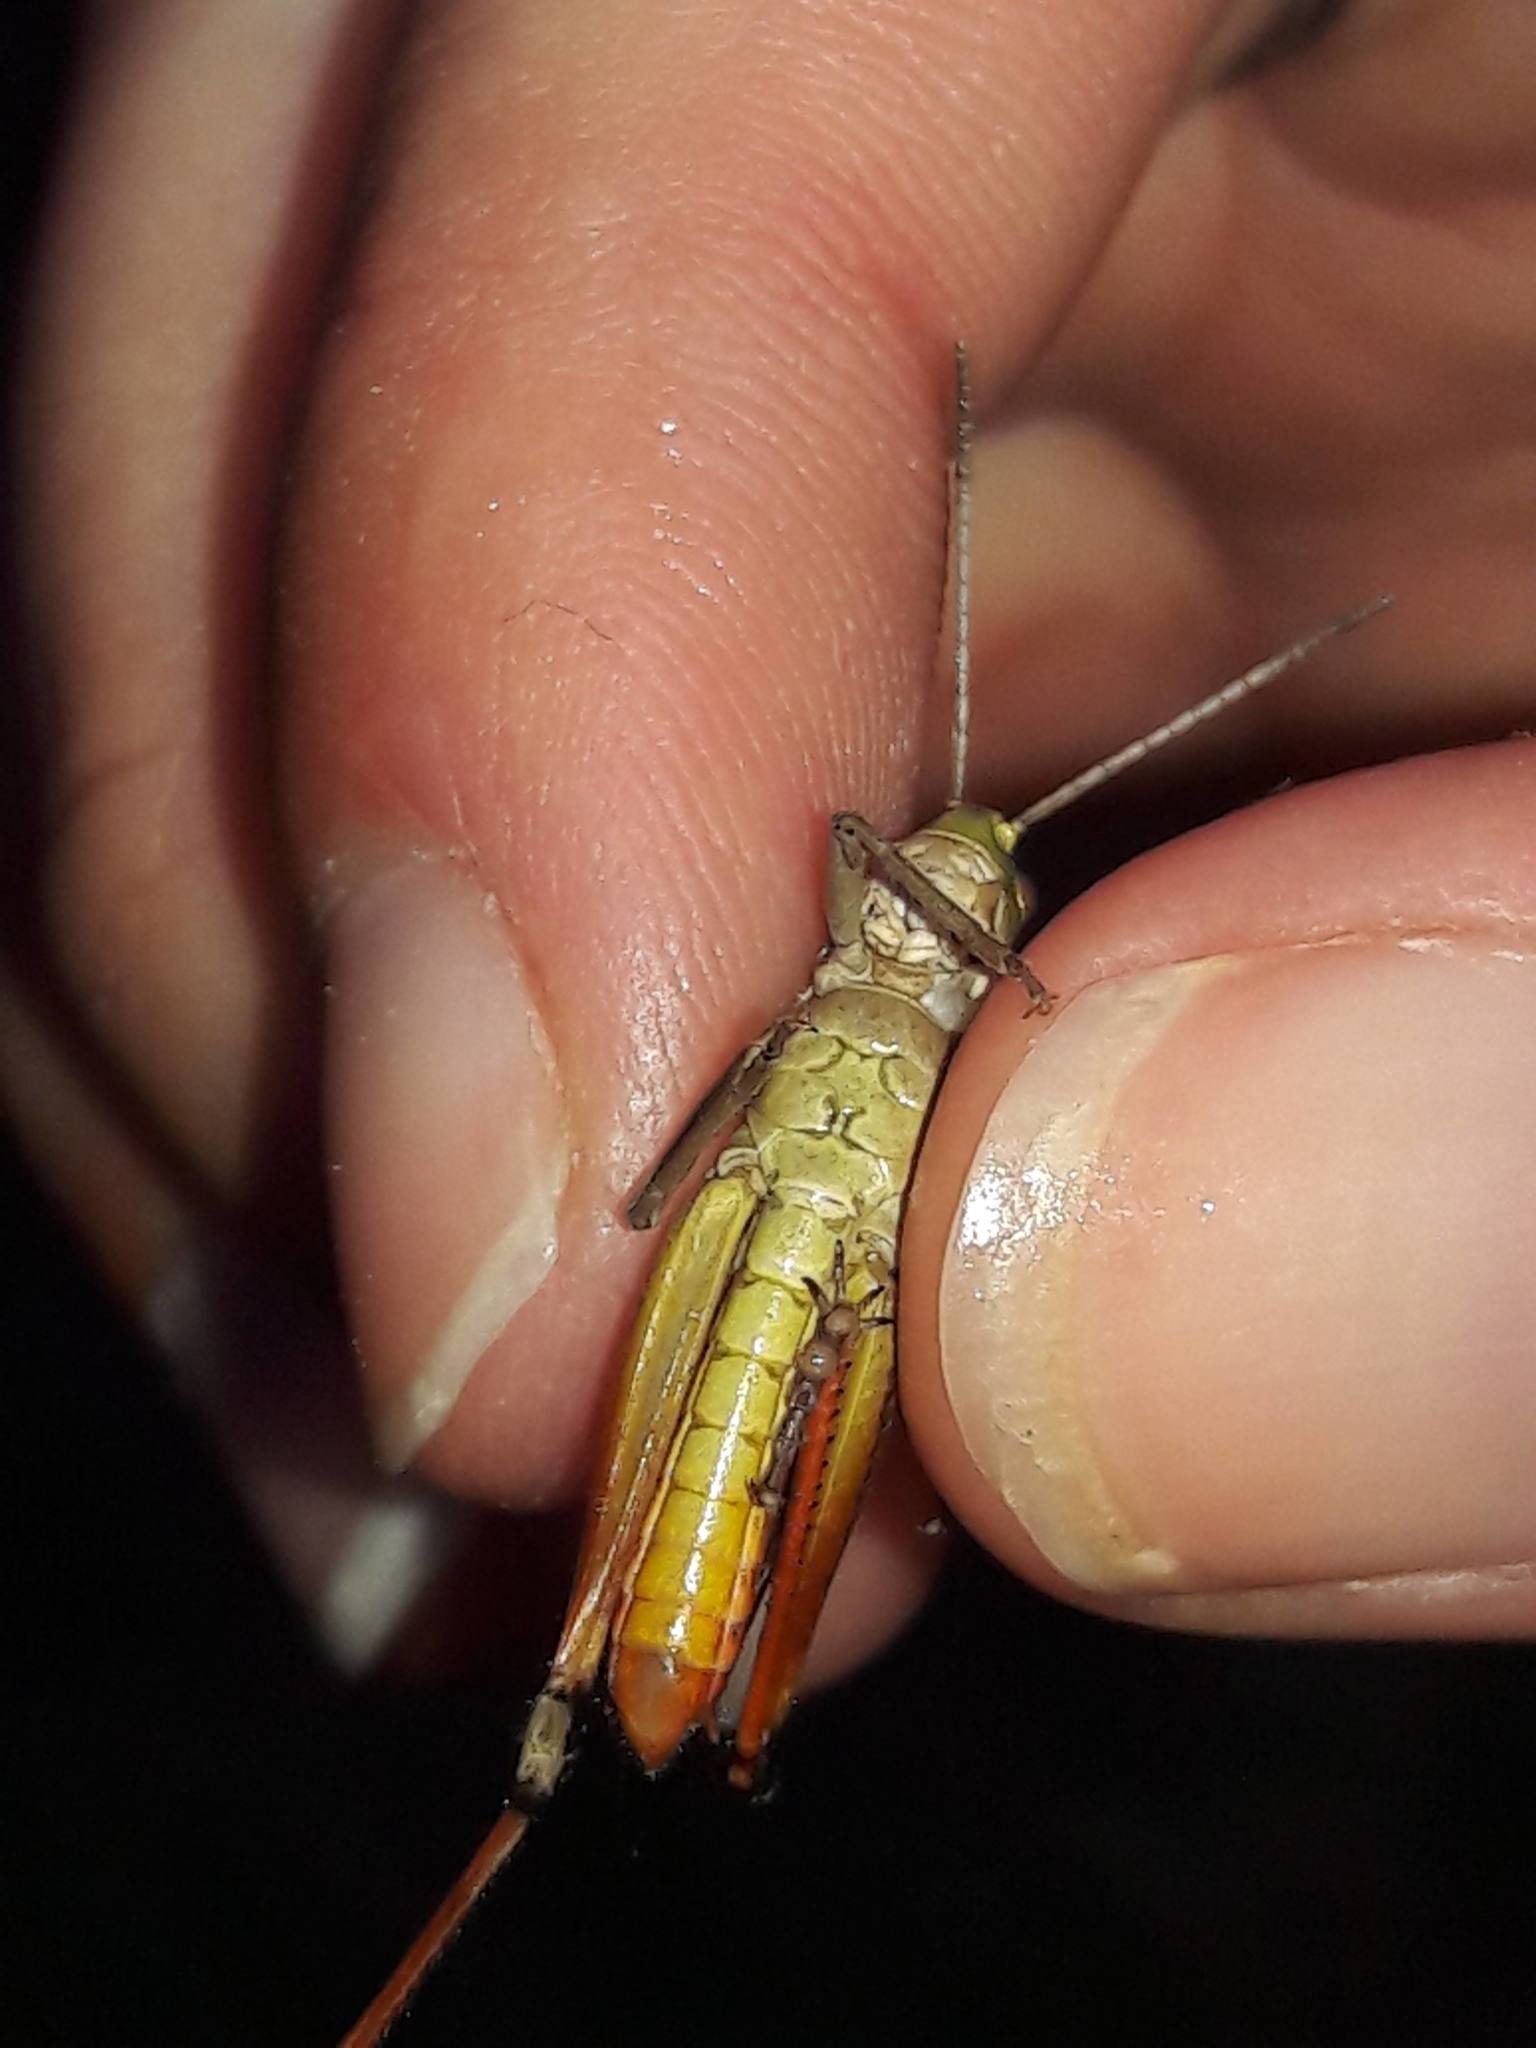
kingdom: Animalia
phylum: Arthropoda
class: Insecta
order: Orthoptera
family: Acrididae
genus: Stenobothrus
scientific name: Stenobothrus lineatus
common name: Stripe-winged grasshopper
